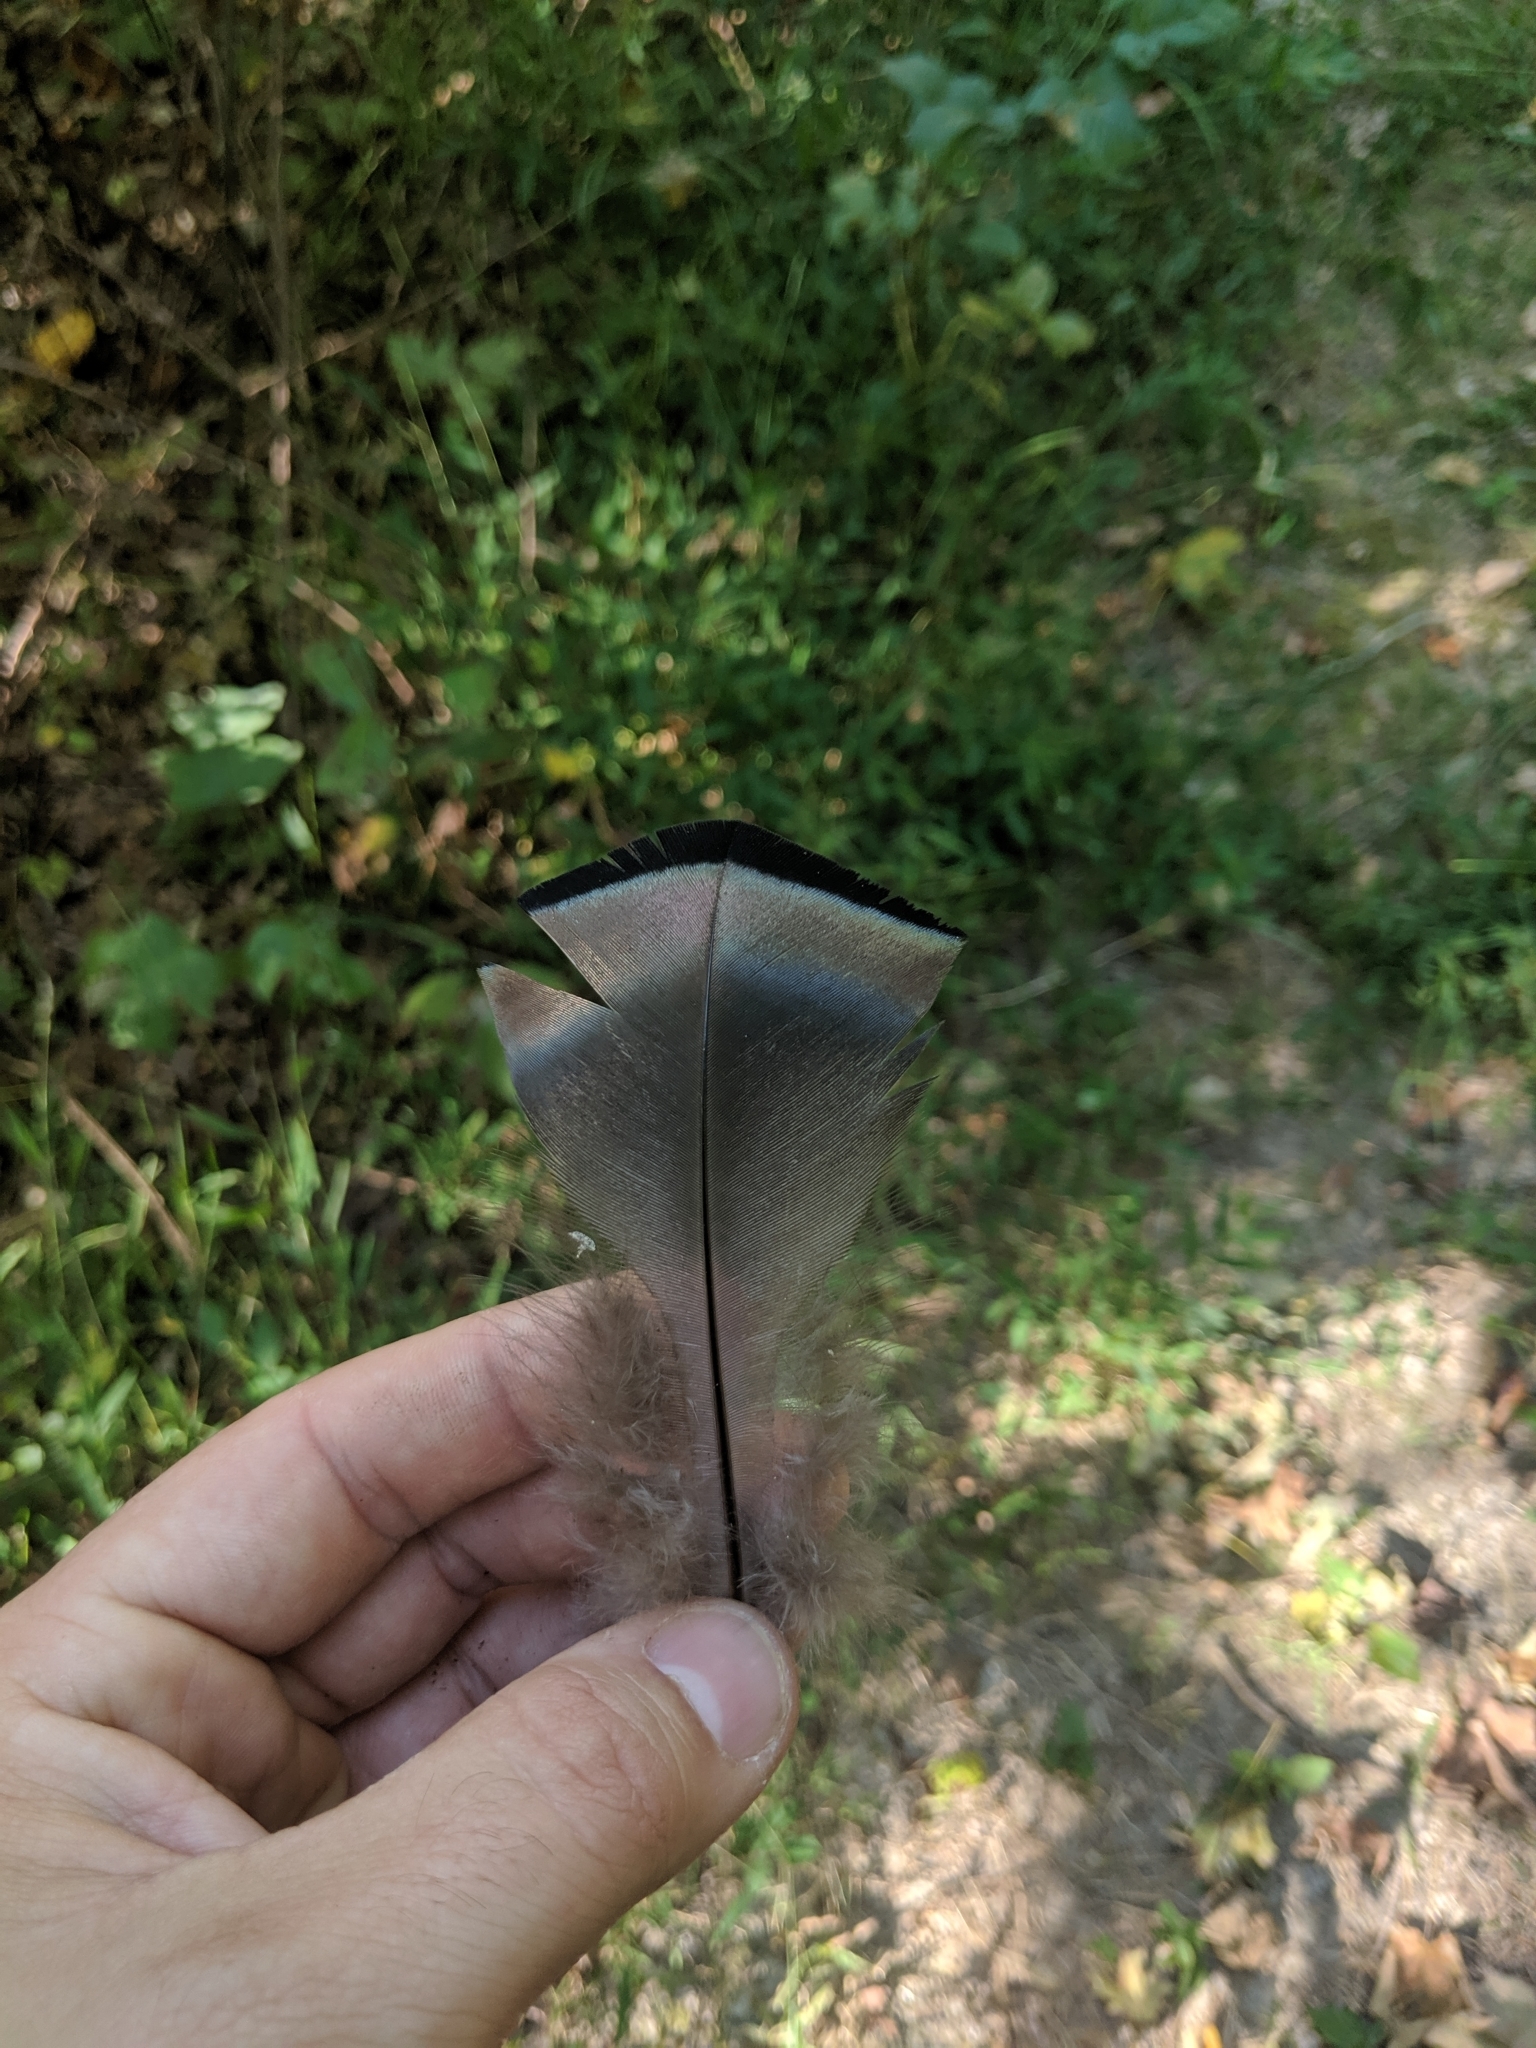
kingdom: Animalia
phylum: Chordata
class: Aves
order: Galliformes
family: Phasianidae
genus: Meleagris
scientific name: Meleagris gallopavo
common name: Wild turkey
